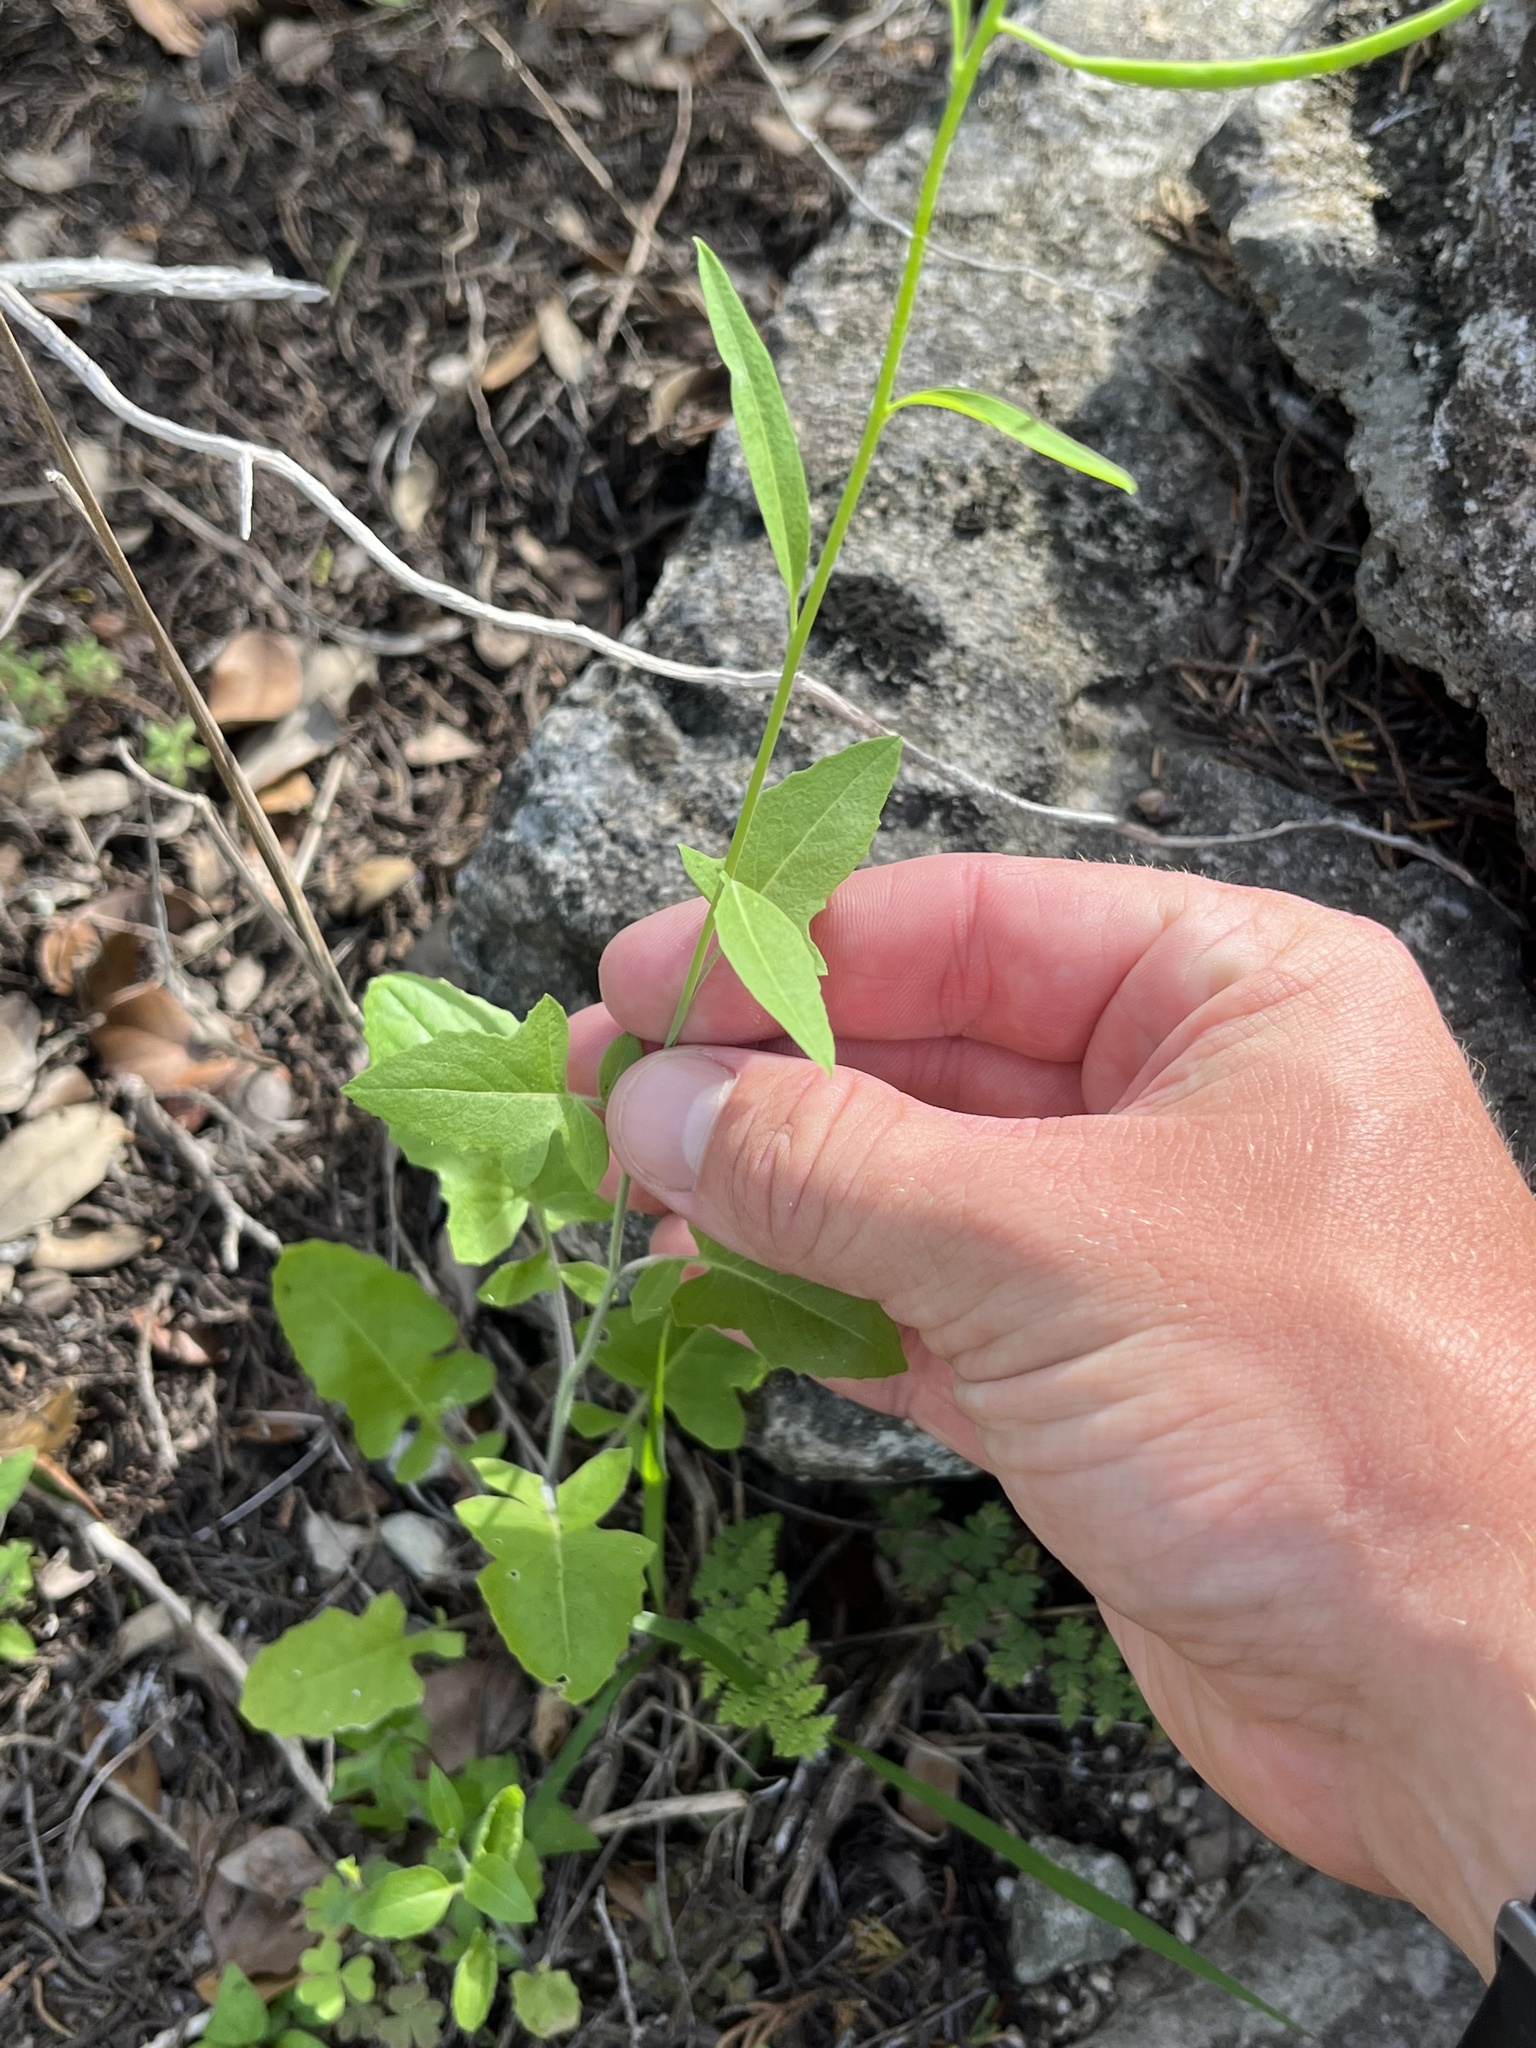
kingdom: Plantae
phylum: Tracheophyta
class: Magnoliopsida
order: Brassicales
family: Brassicaceae
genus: Streptanthus
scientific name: Streptanthus petiolaris
